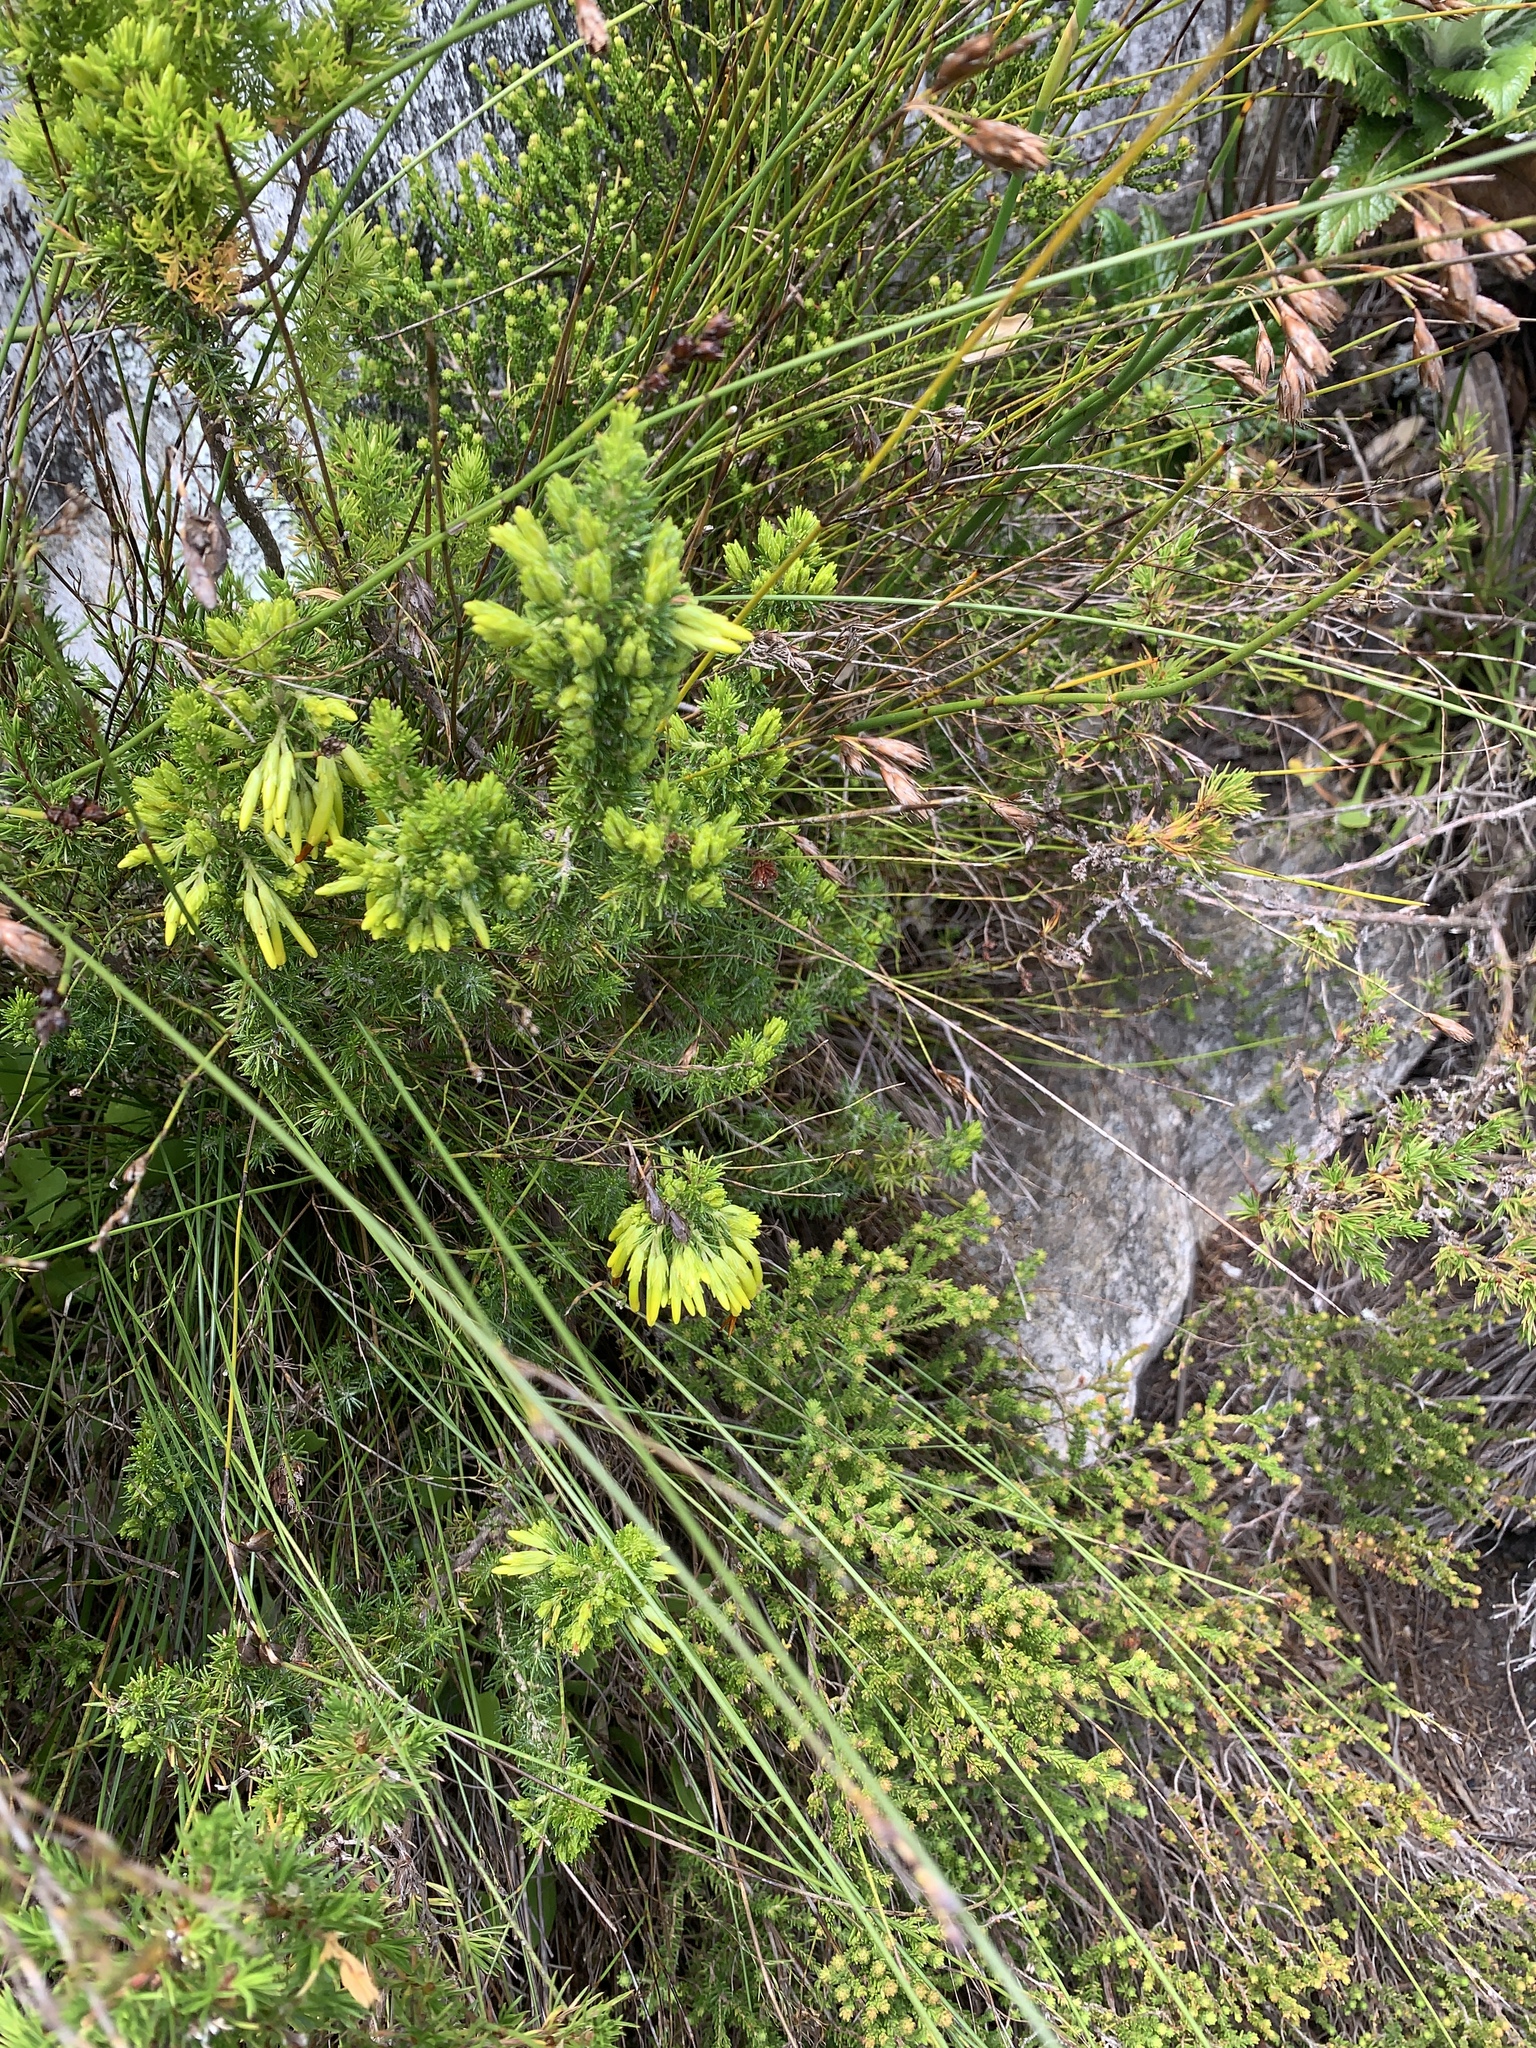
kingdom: Plantae
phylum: Tracheophyta
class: Magnoliopsida
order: Ericales
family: Ericaceae
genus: Erica
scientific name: Erica coccinea
